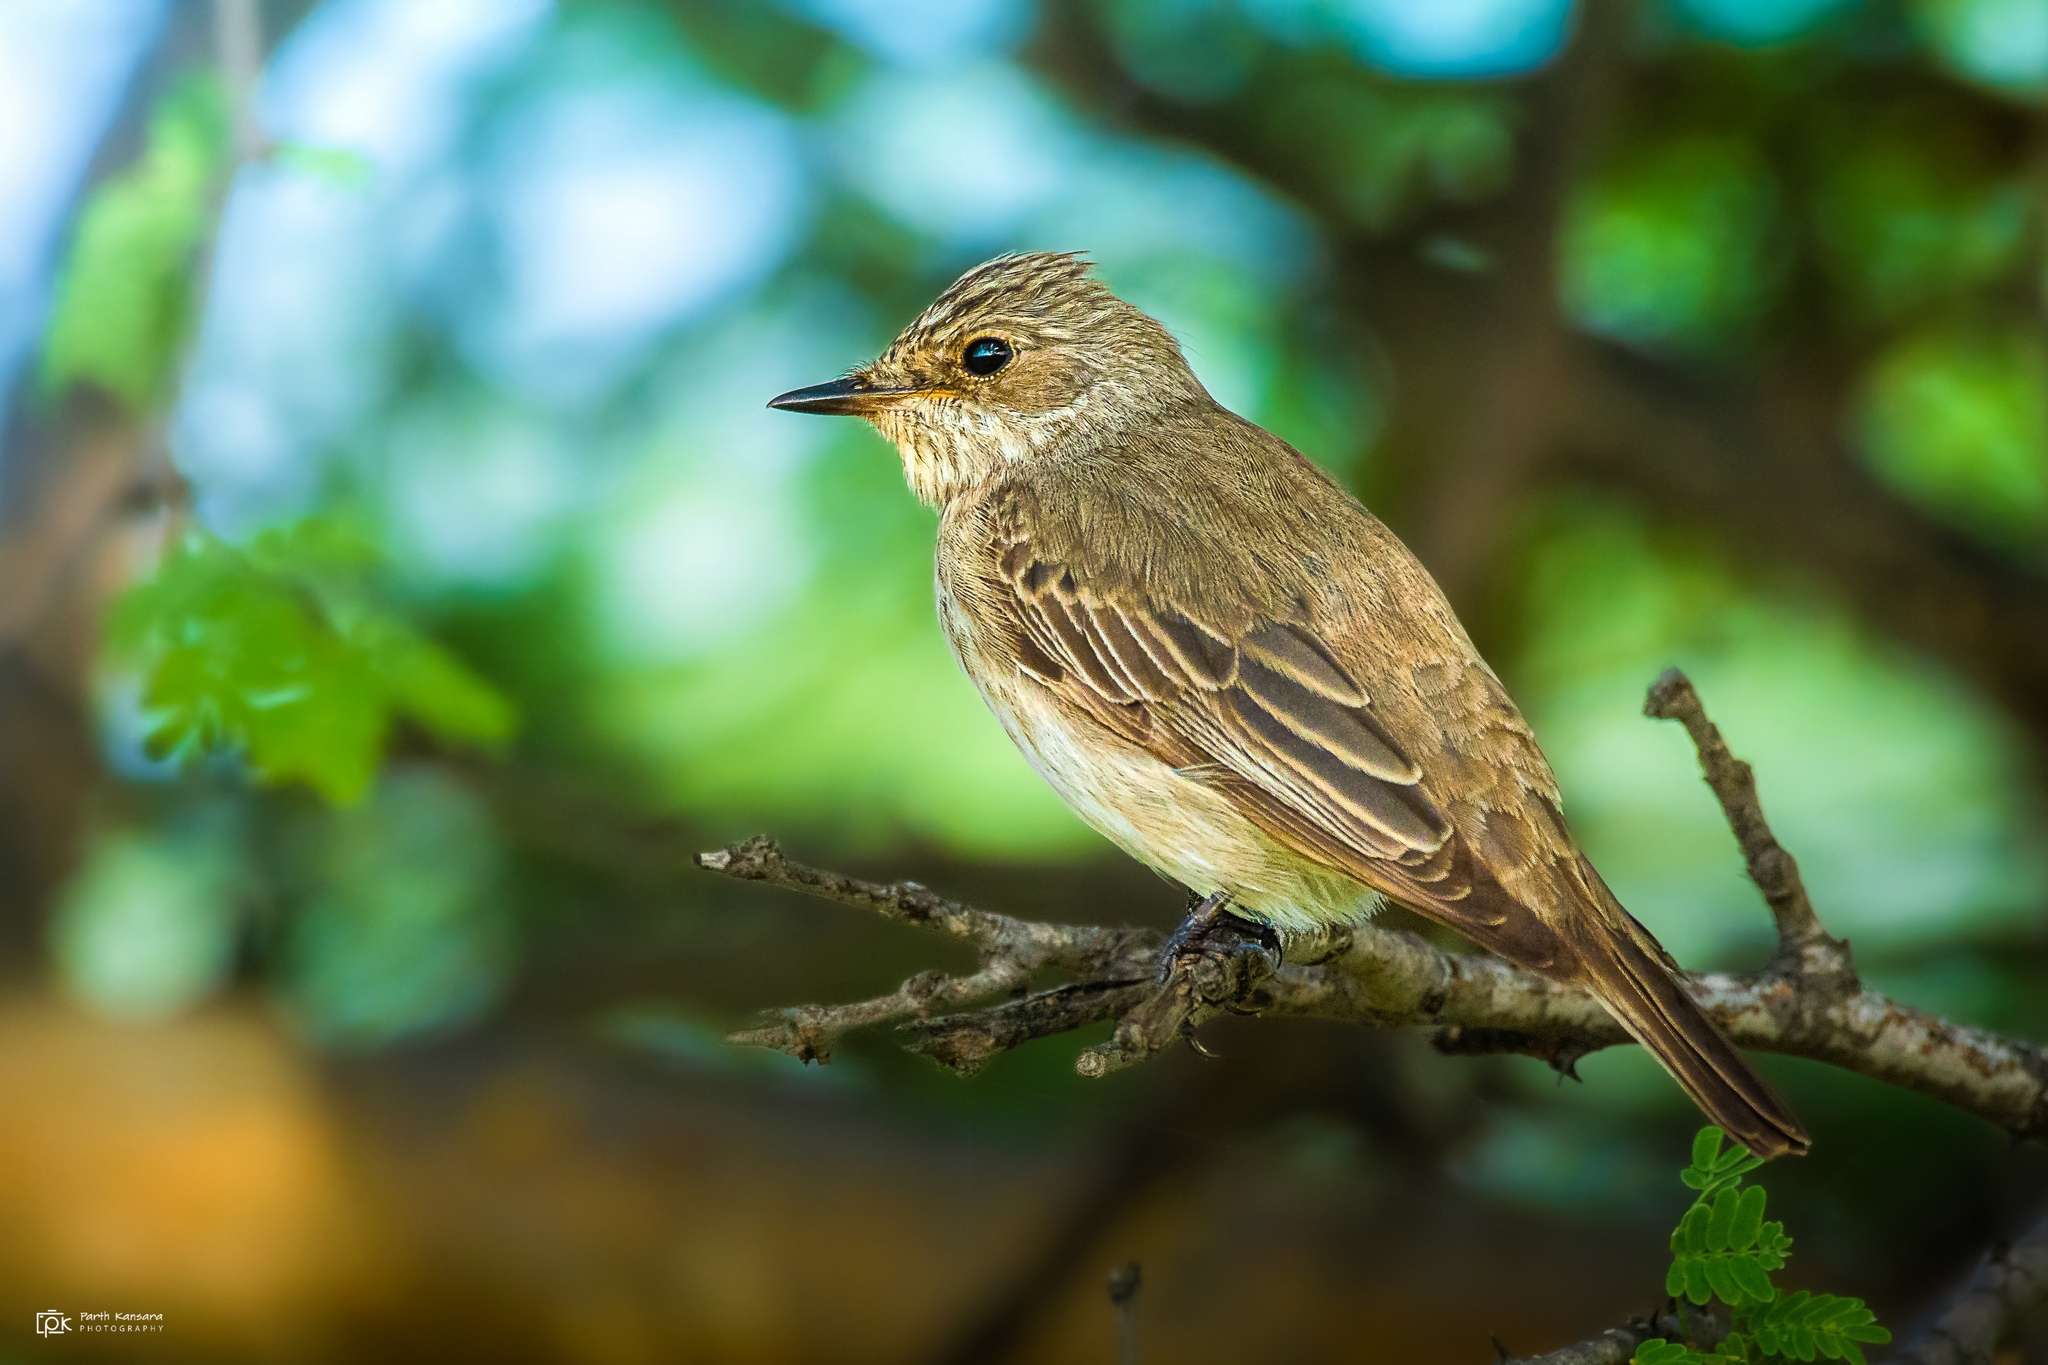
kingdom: Animalia
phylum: Chordata
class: Aves
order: Passeriformes
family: Muscicapidae
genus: Muscicapa
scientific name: Muscicapa striata
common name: Spotted flycatcher
